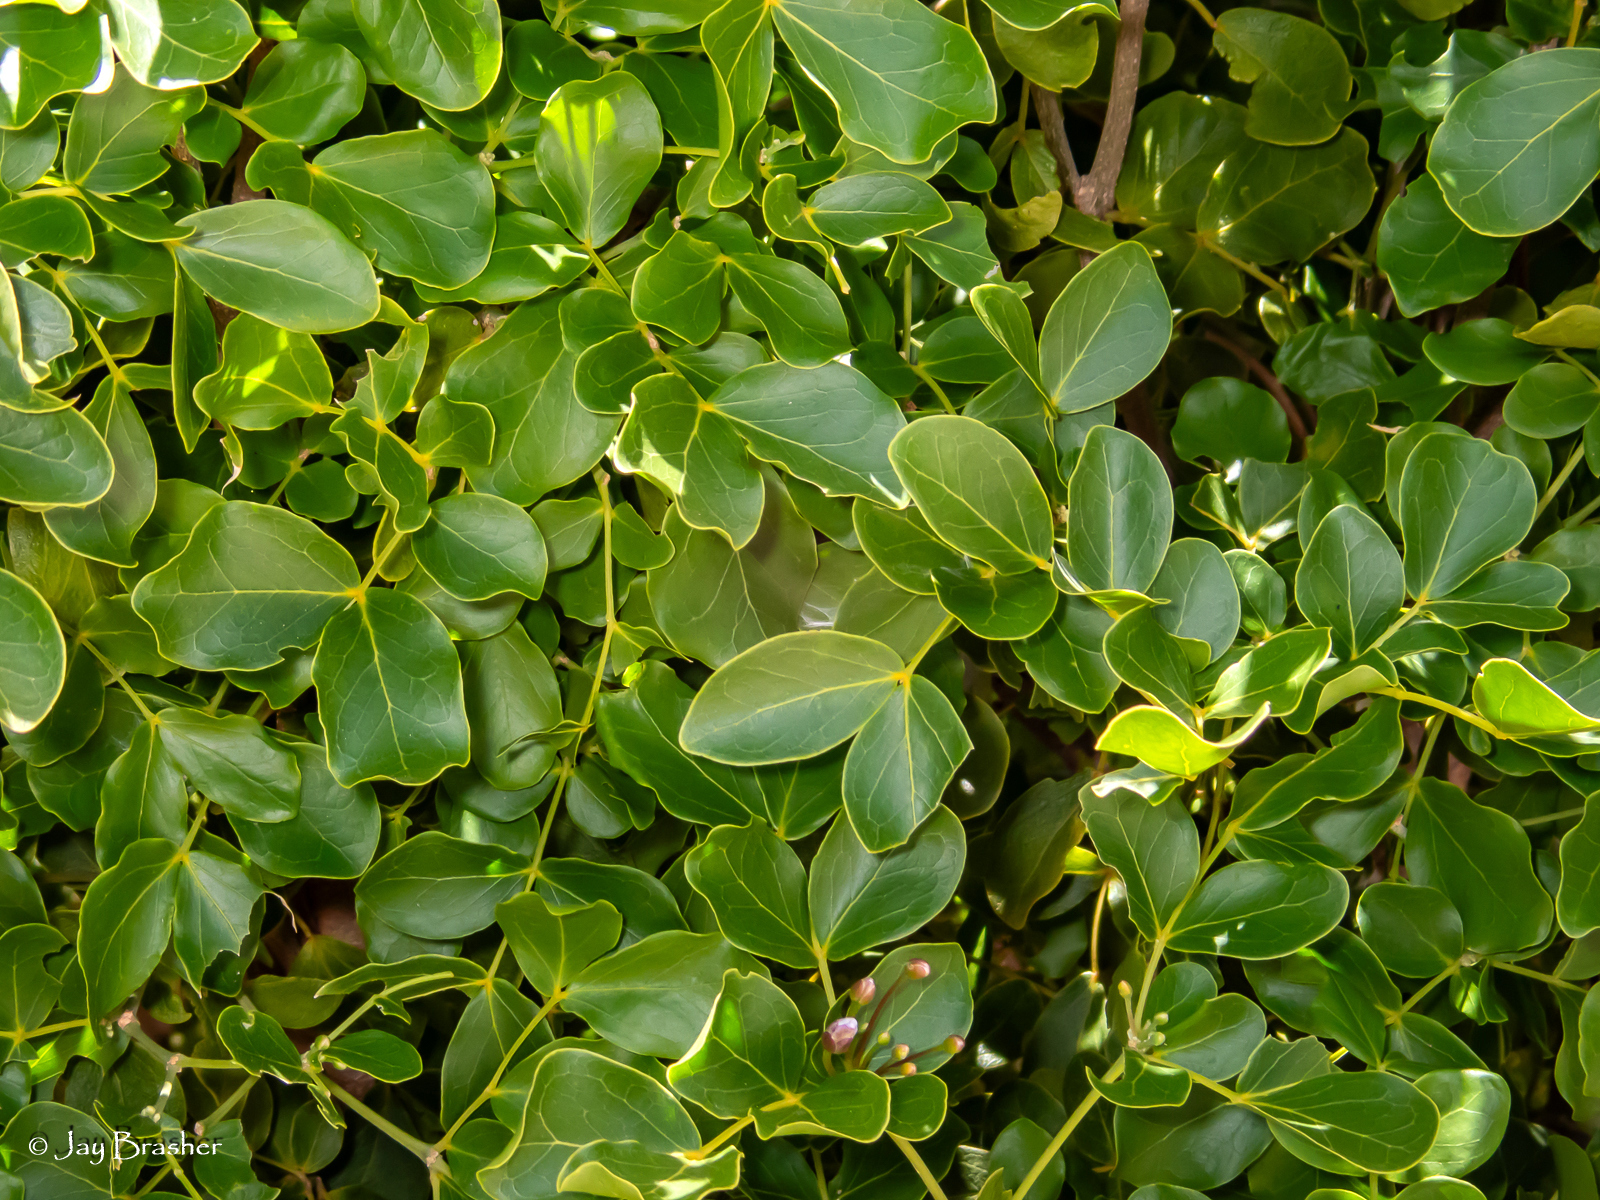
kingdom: Plantae
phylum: Tracheophyta
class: Magnoliopsida
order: Zygophyllales
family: Zygophyllaceae
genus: Guaiacum
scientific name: Guaiacum officinale
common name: Lignum vitae
